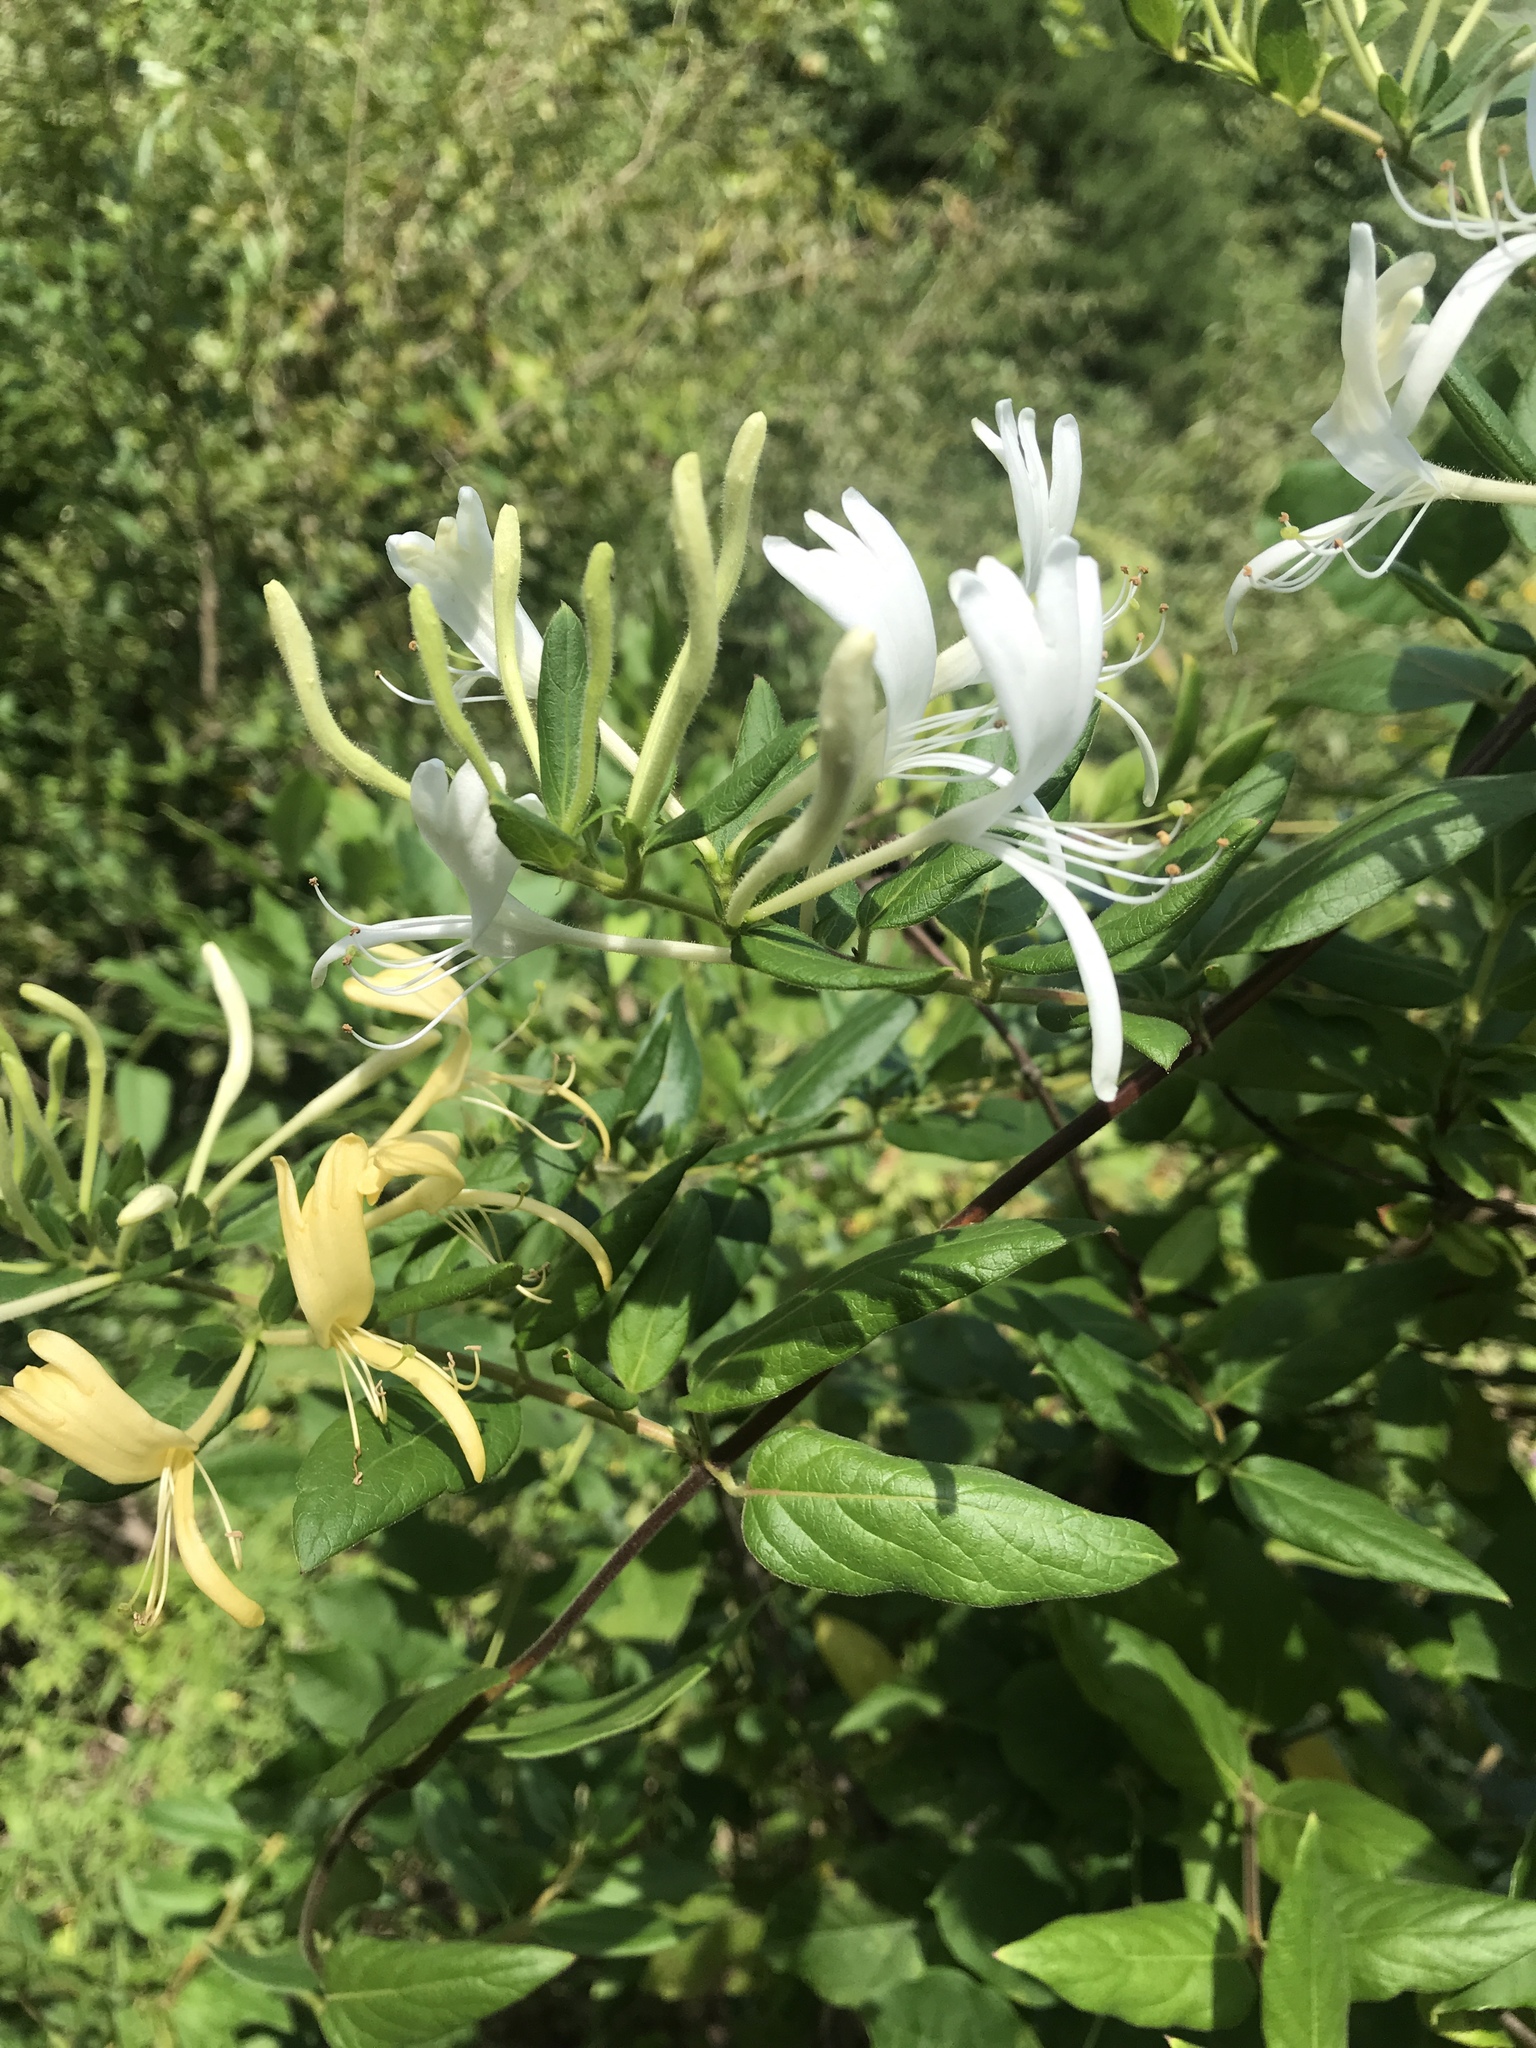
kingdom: Plantae
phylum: Tracheophyta
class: Magnoliopsida
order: Dipsacales
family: Caprifoliaceae
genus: Lonicera
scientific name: Lonicera japonica
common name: Japanese honeysuckle
